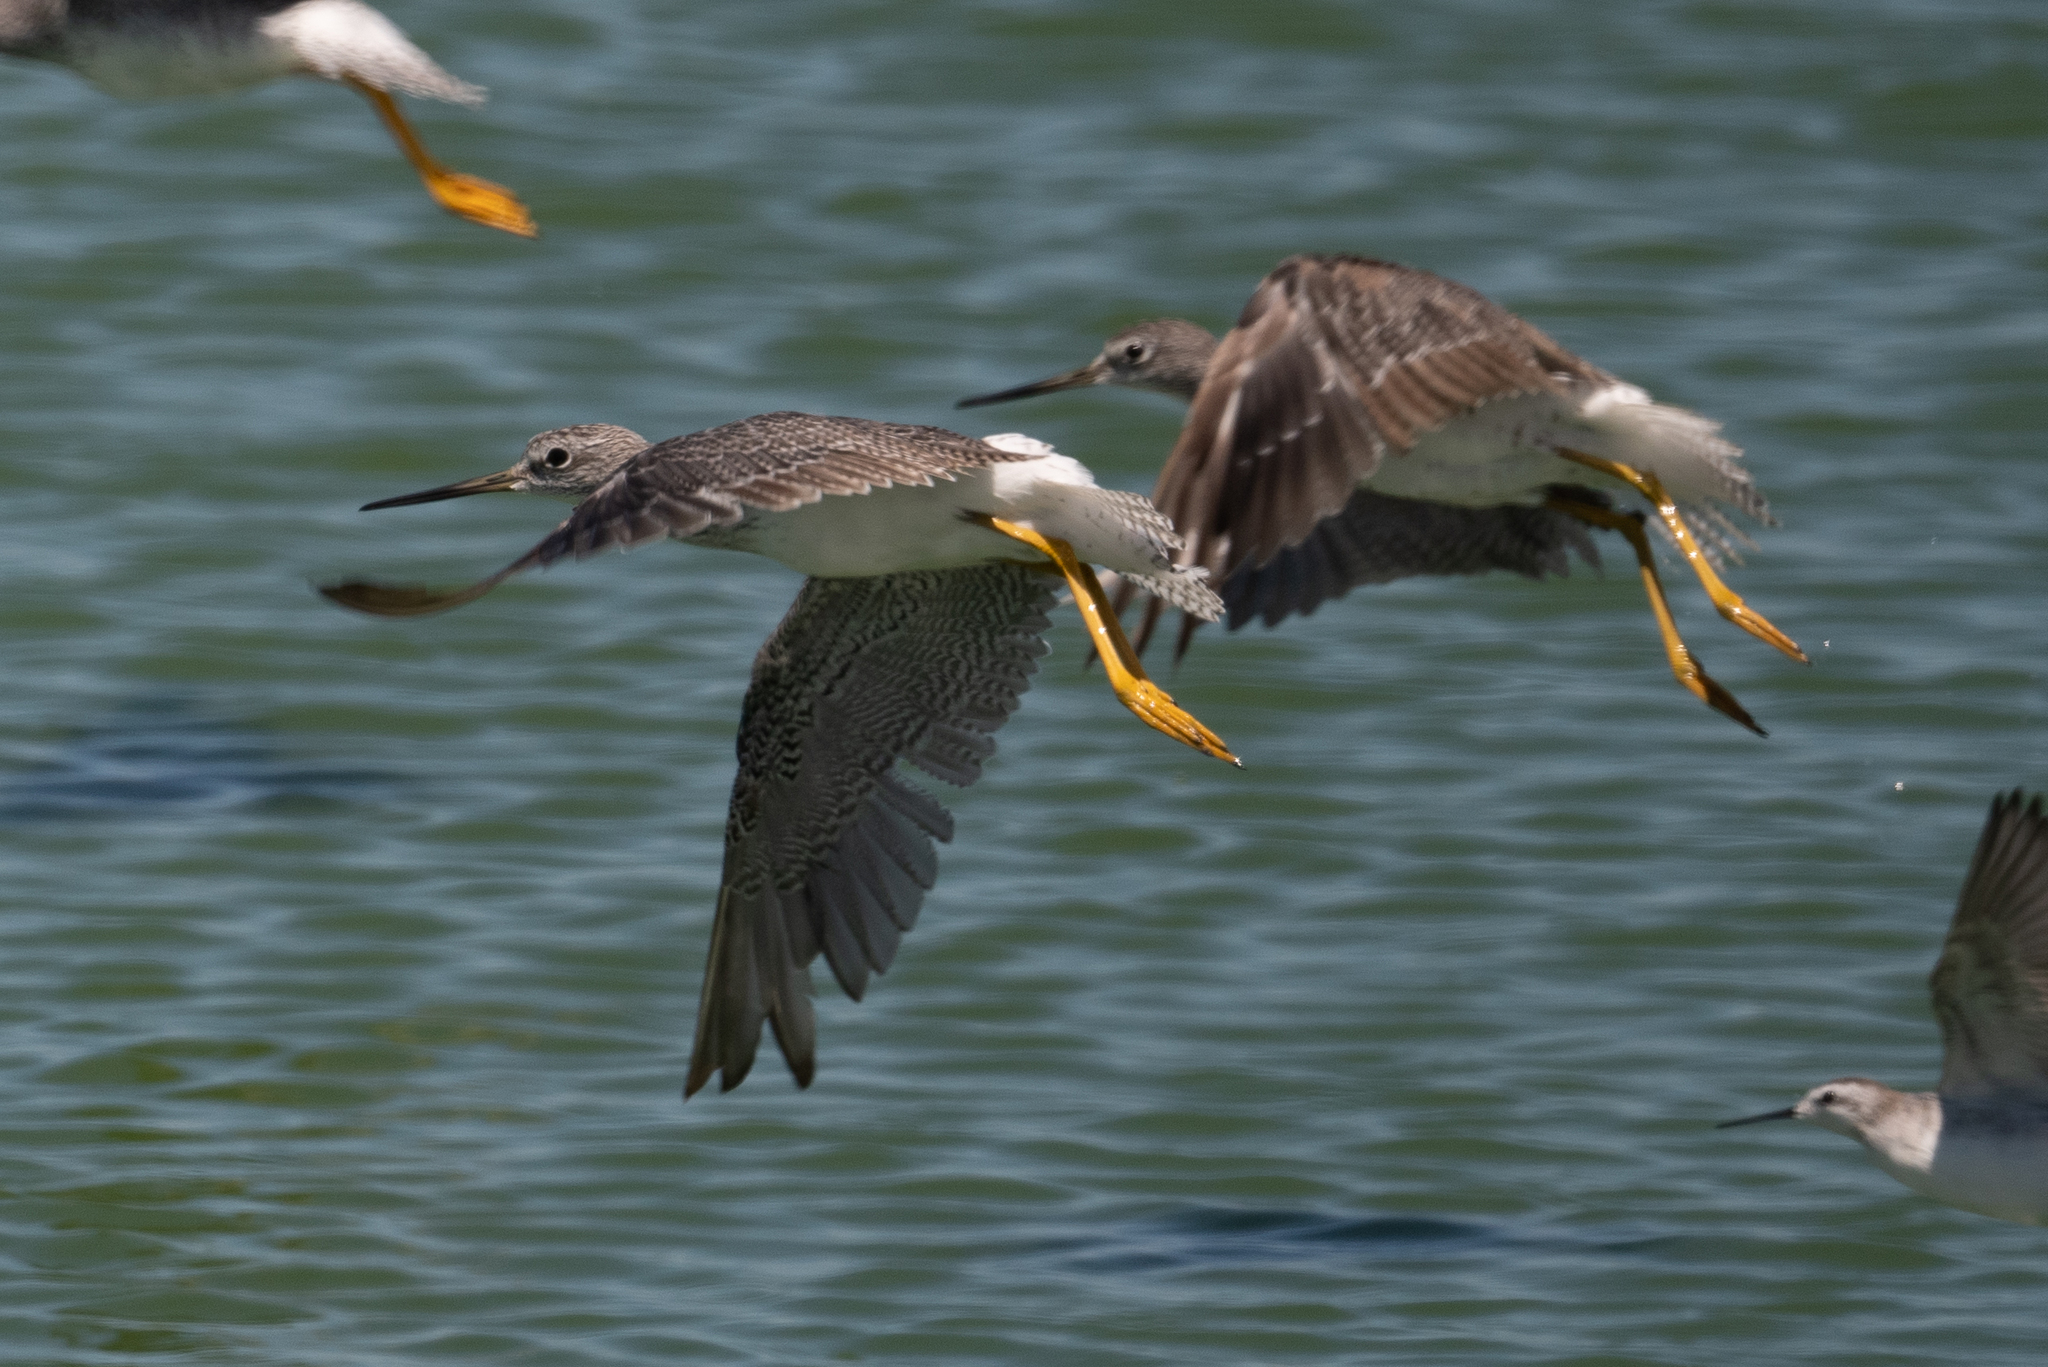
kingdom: Animalia
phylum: Chordata
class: Aves
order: Charadriiformes
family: Scolopacidae
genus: Tringa
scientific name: Tringa melanoleuca
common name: Greater yellowlegs
